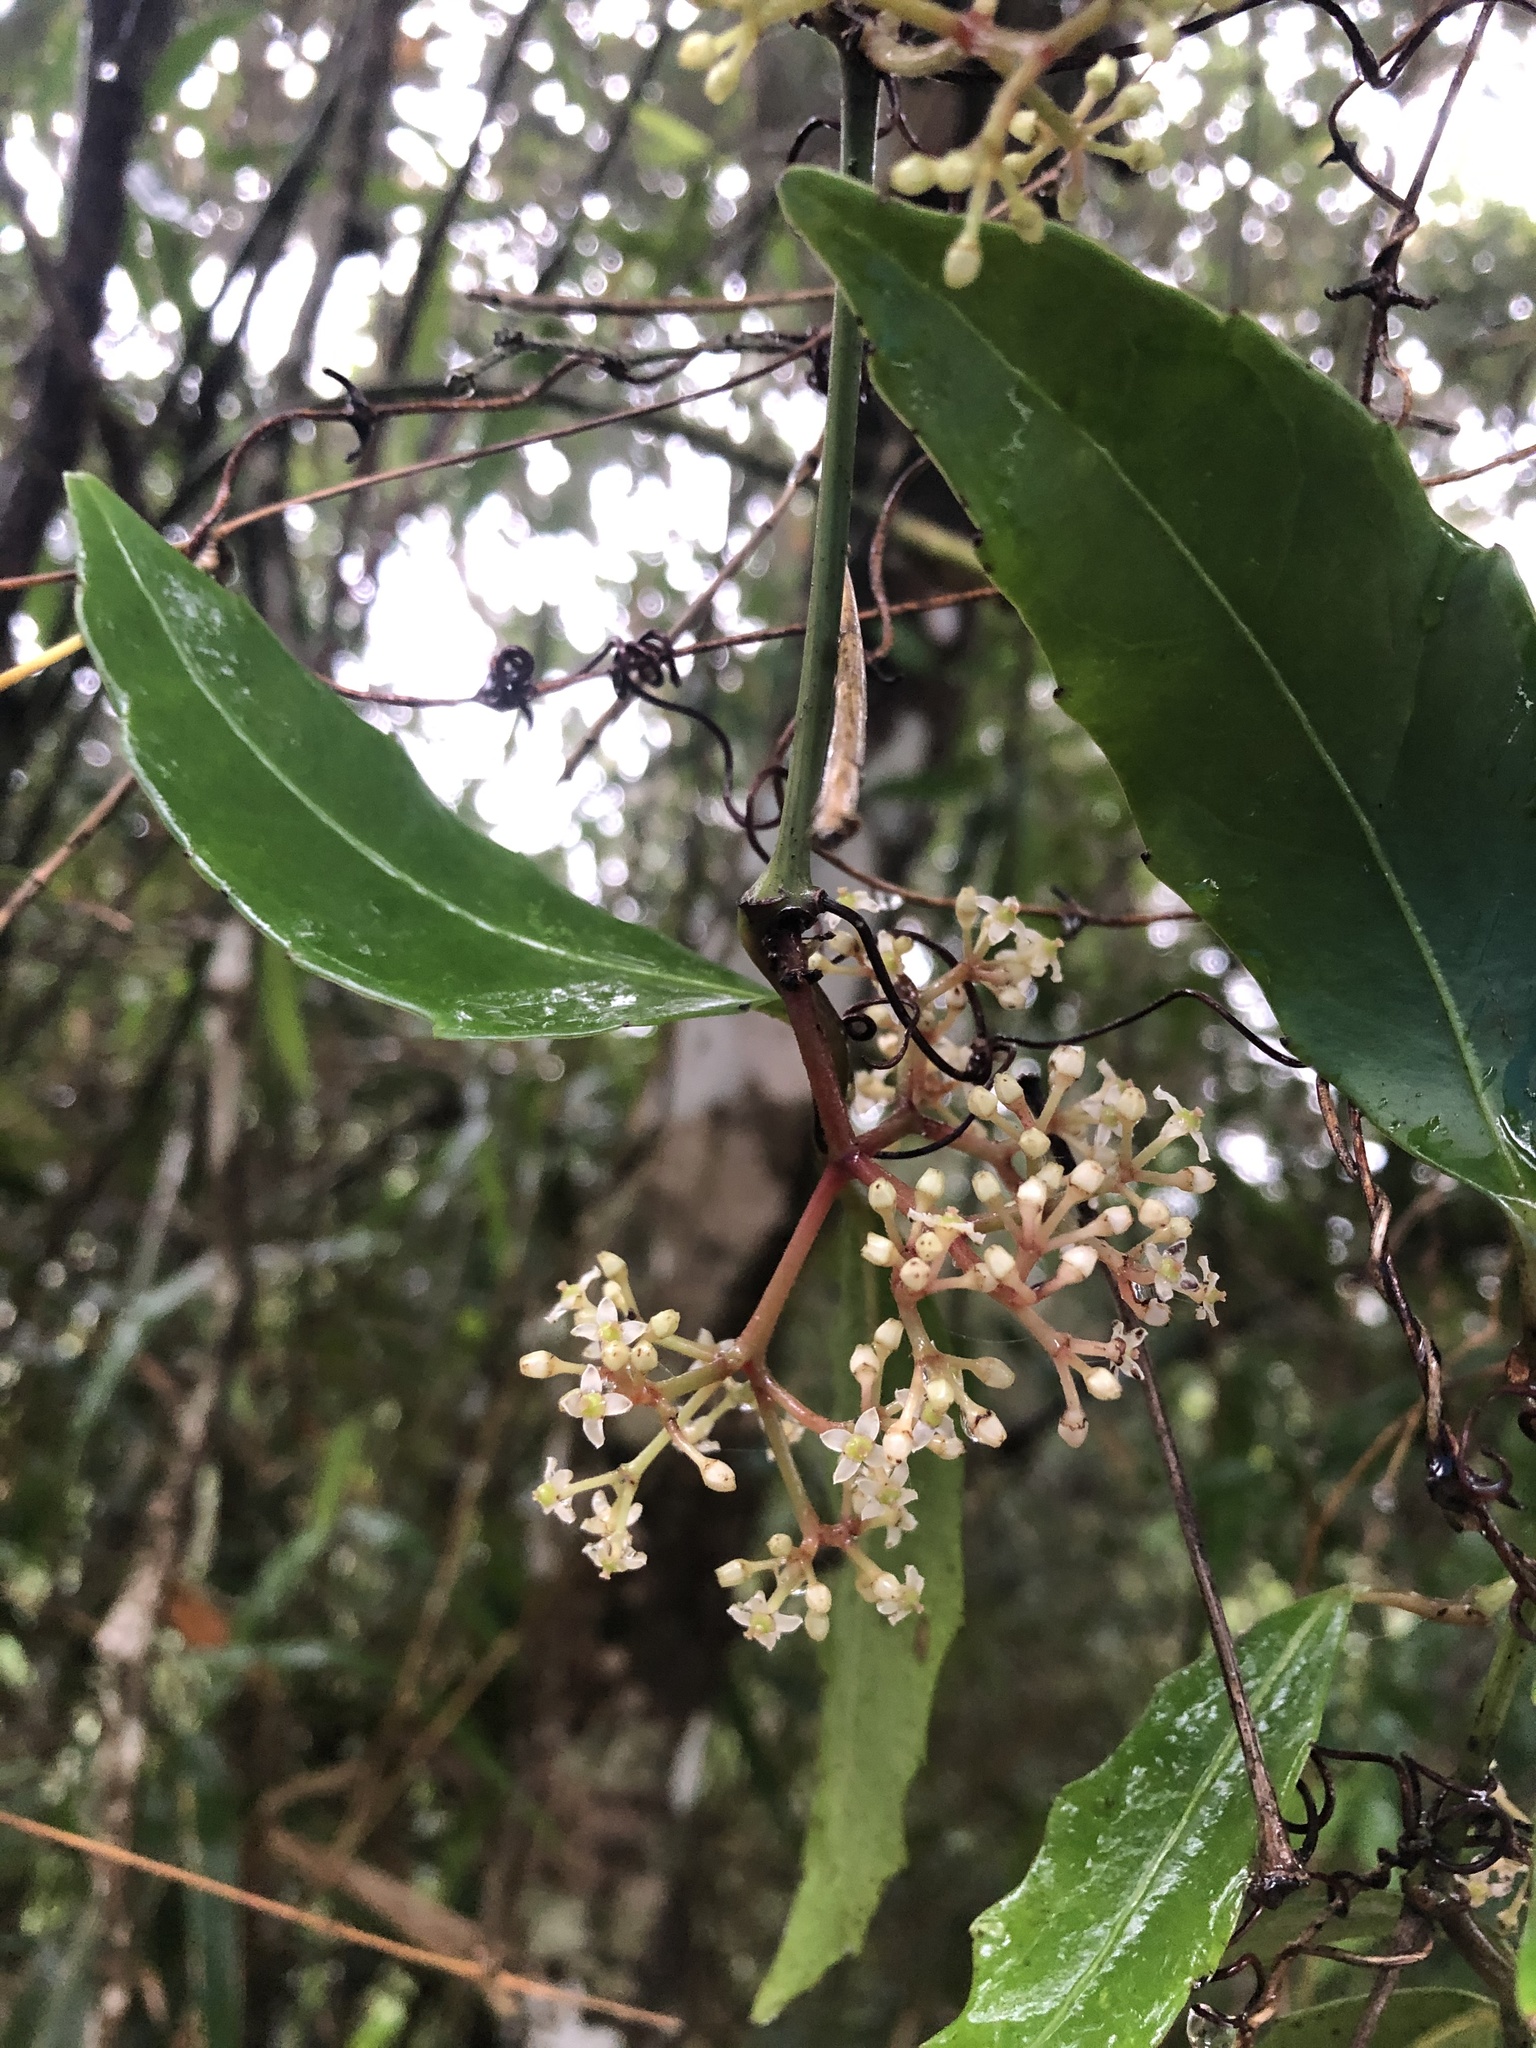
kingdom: Plantae
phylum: Tracheophyta
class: Magnoliopsida
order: Vitales
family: Vitaceae
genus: Tetrastigma
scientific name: Tetrastigma formosanum
